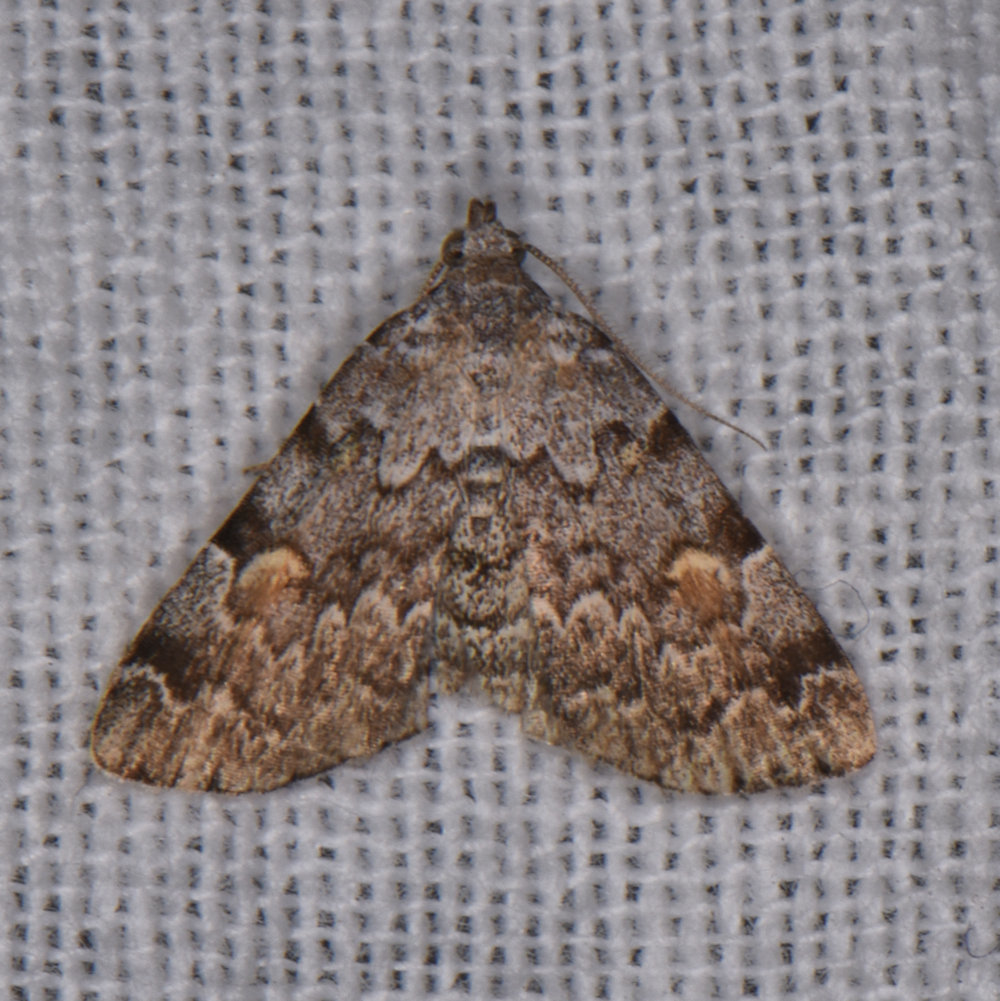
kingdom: Animalia
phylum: Arthropoda
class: Insecta
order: Lepidoptera
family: Erebidae
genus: Idia
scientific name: Idia americalis
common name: American idia moth
